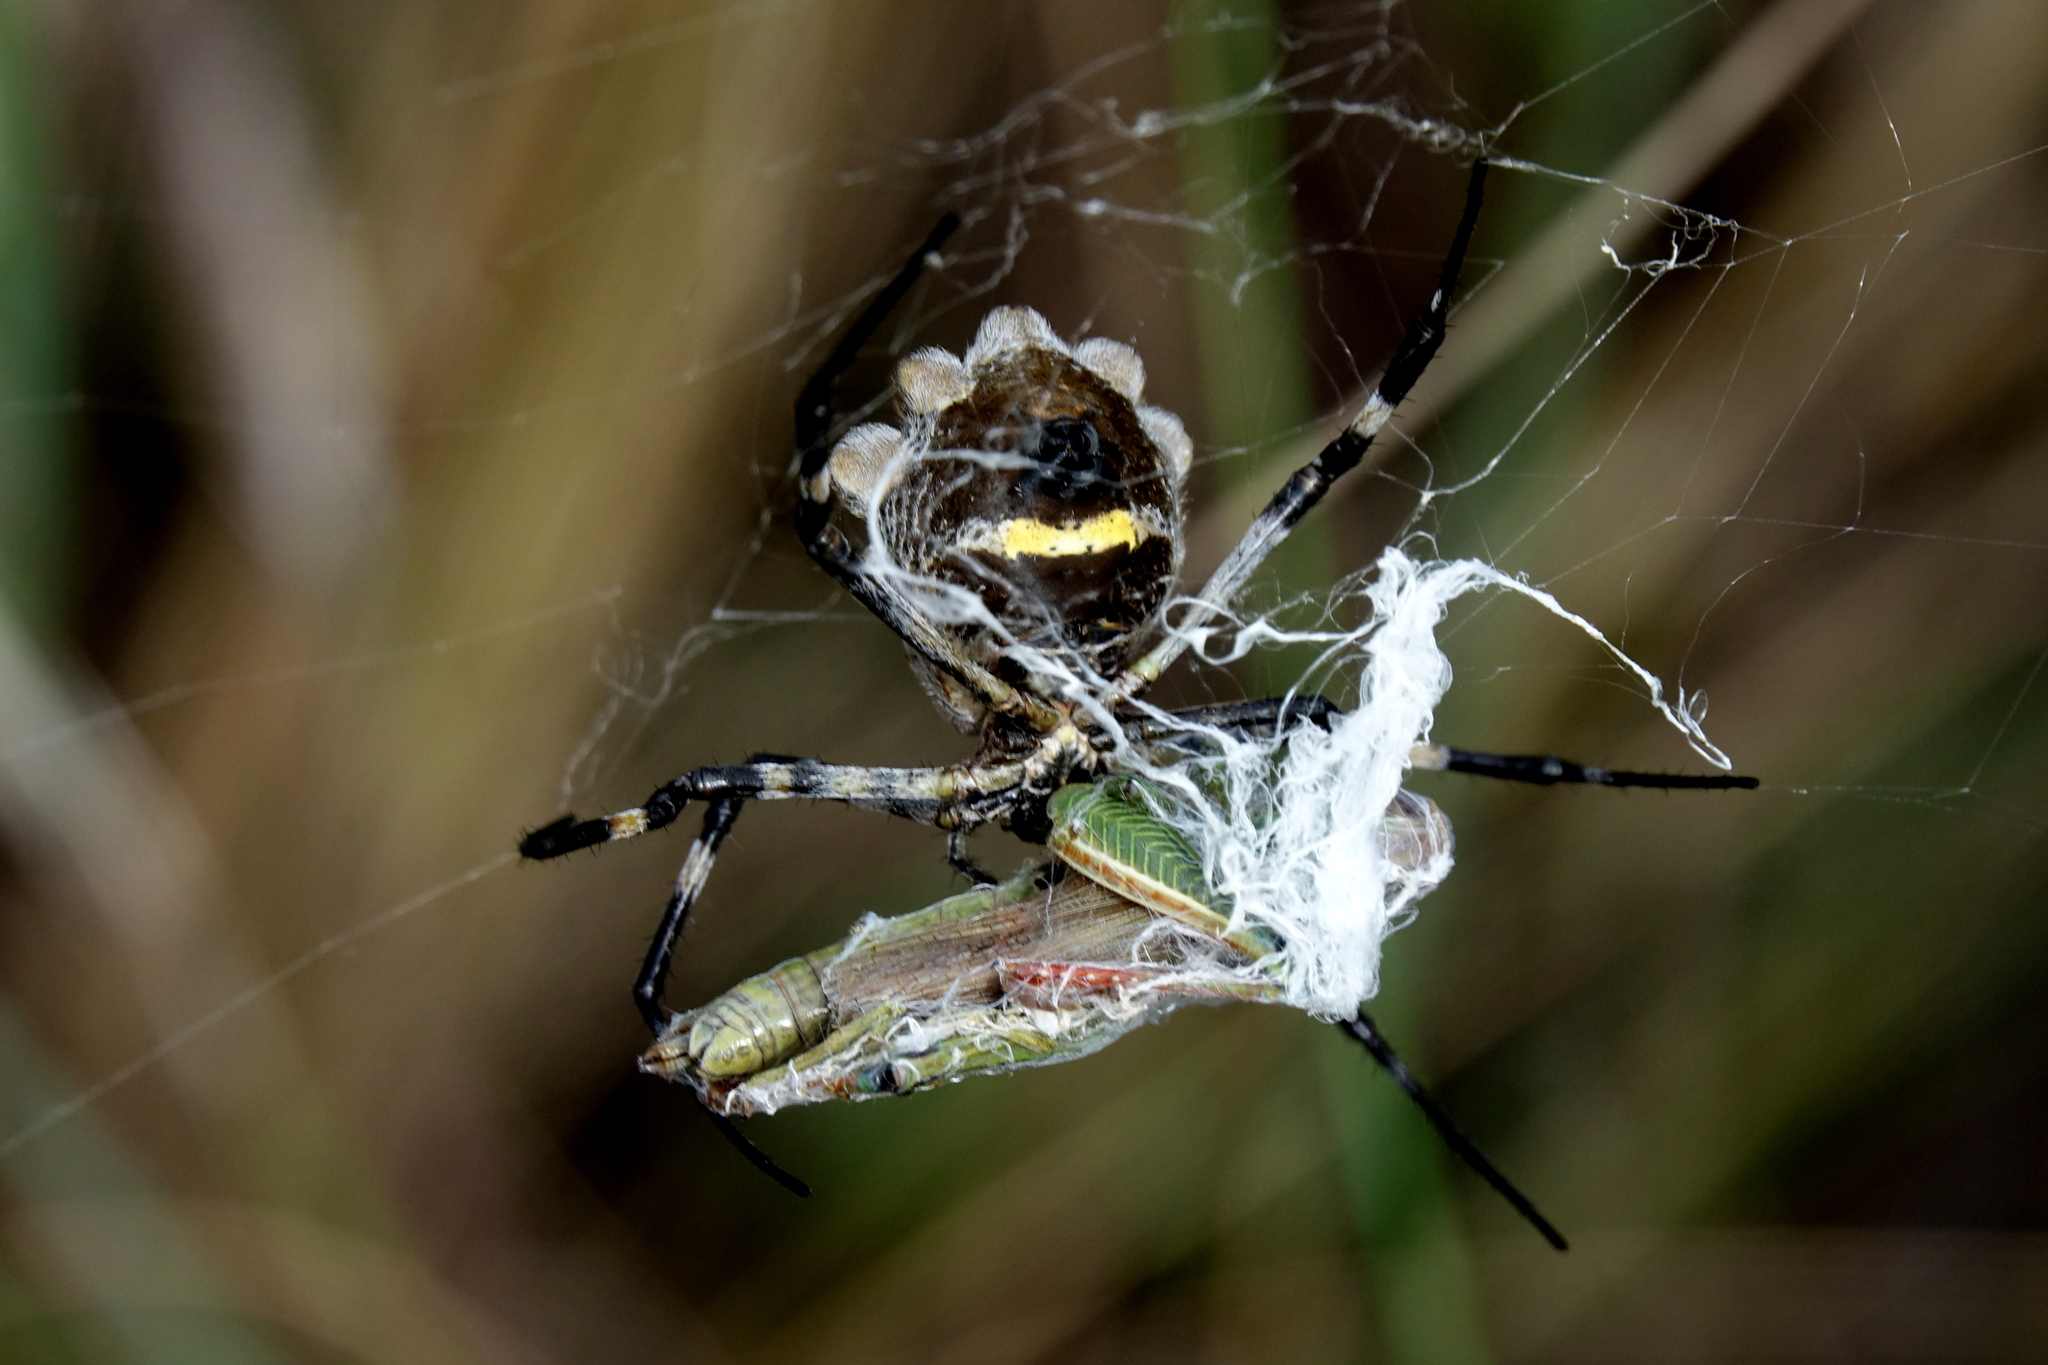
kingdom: Animalia
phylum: Arthropoda
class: Arachnida
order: Araneae
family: Araneidae
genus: Argiope
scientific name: Argiope argentata
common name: Orb weavers
